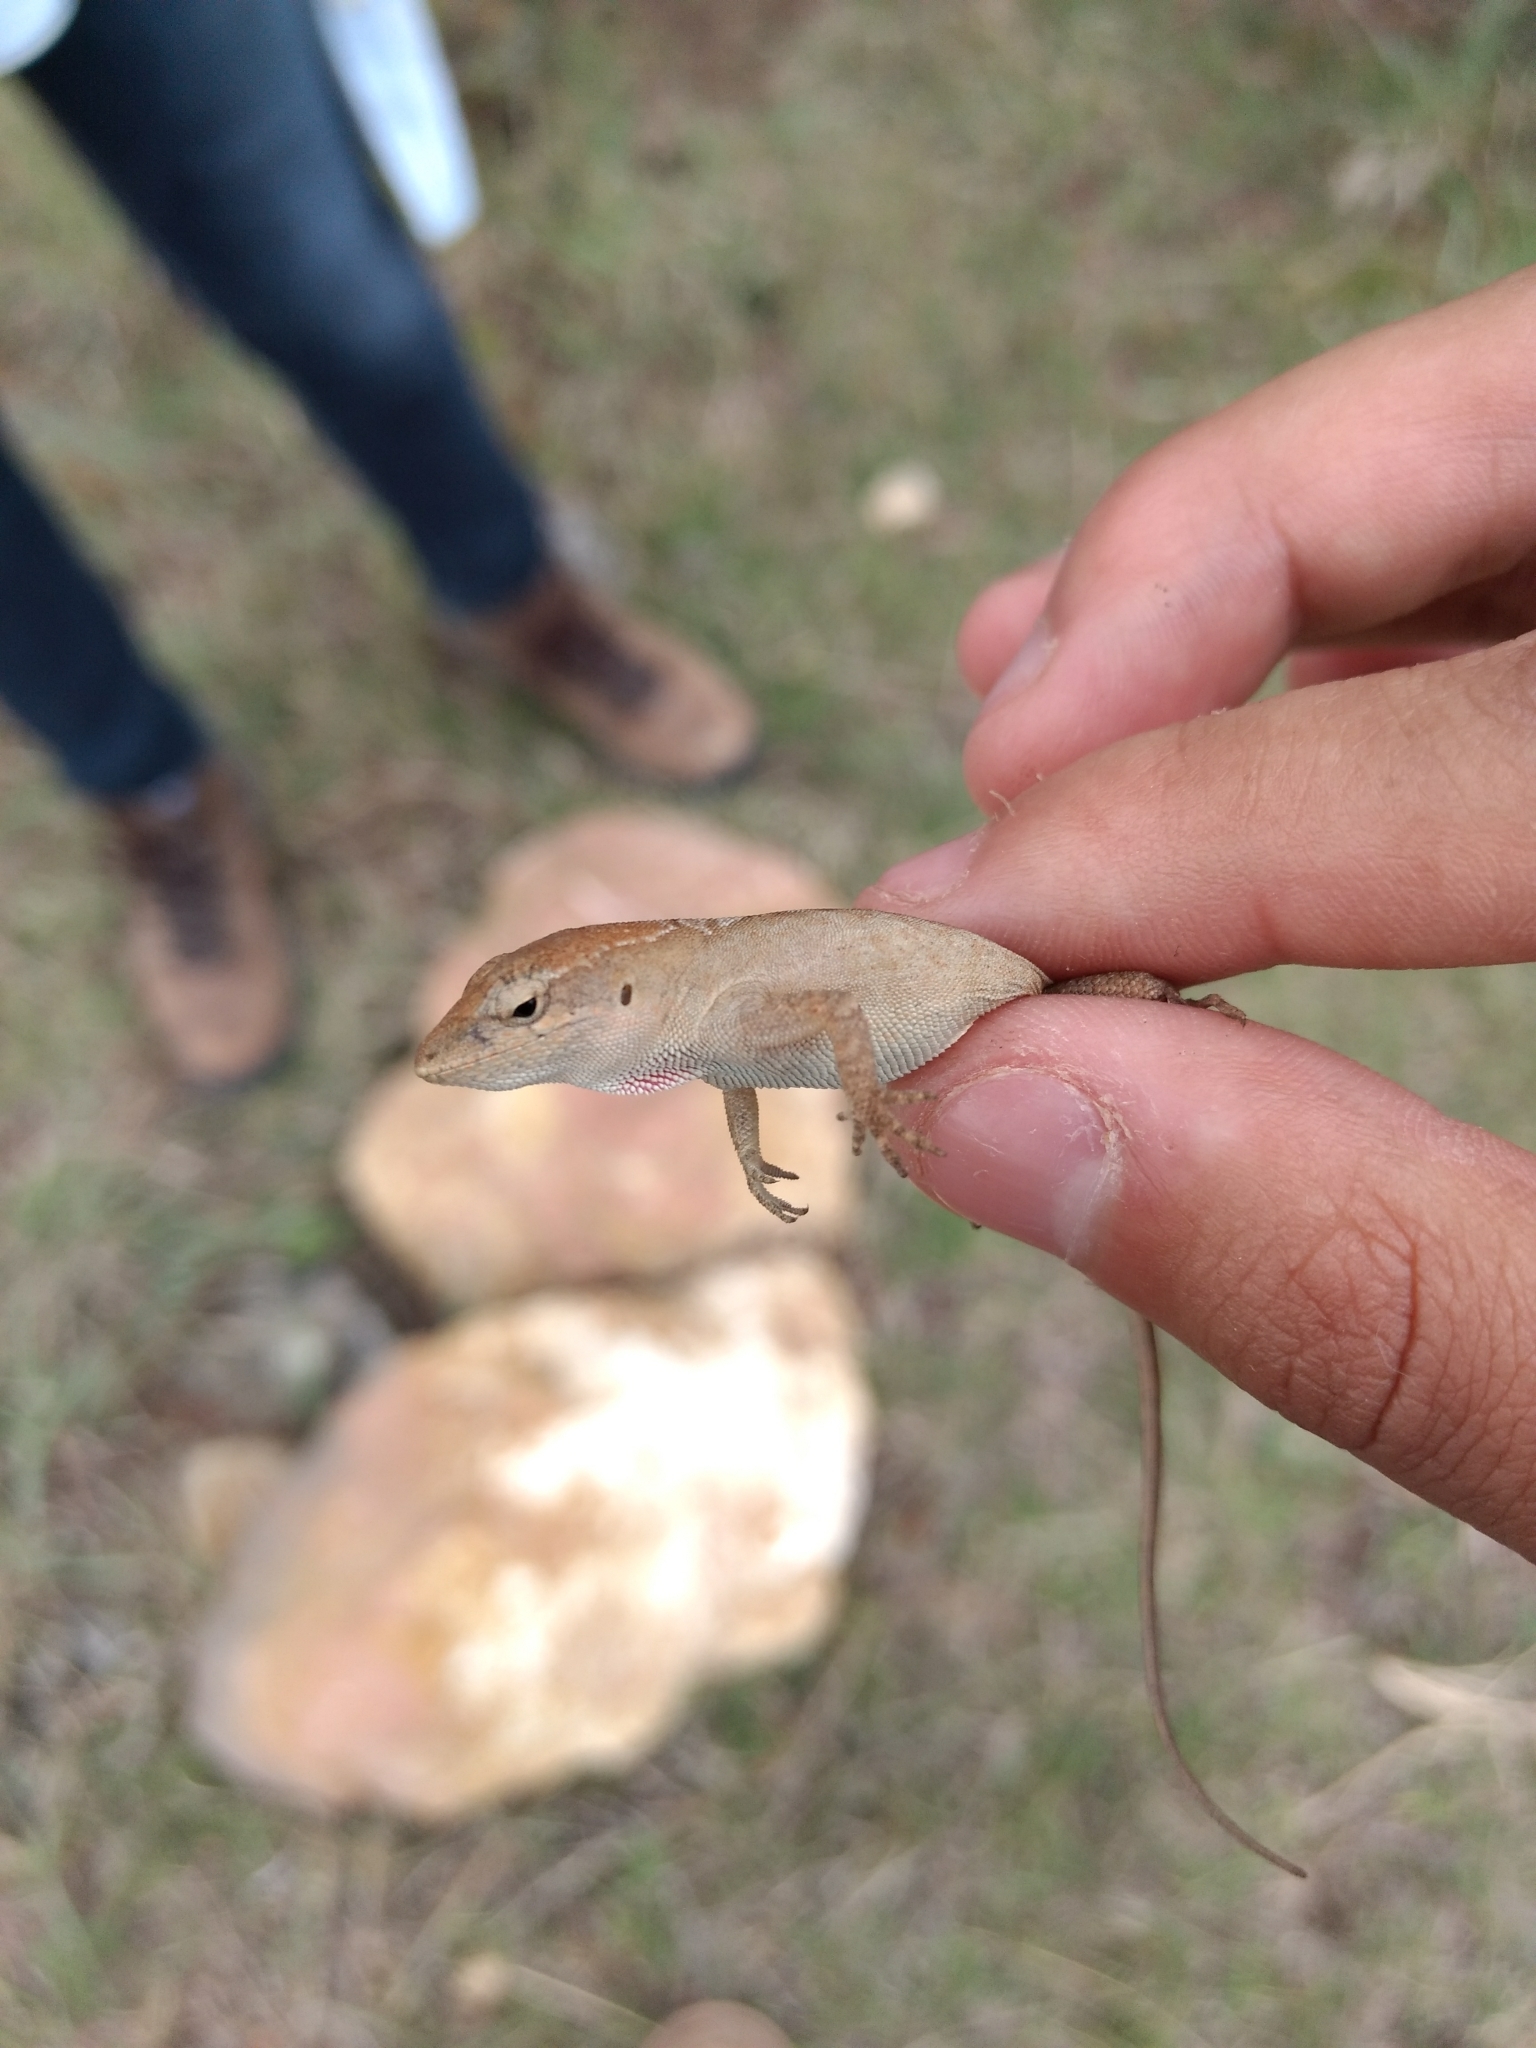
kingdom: Animalia
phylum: Chordata
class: Squamata
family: Dactyloidae
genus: Anolis
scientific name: Anolis quercorum
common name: Gray anole
